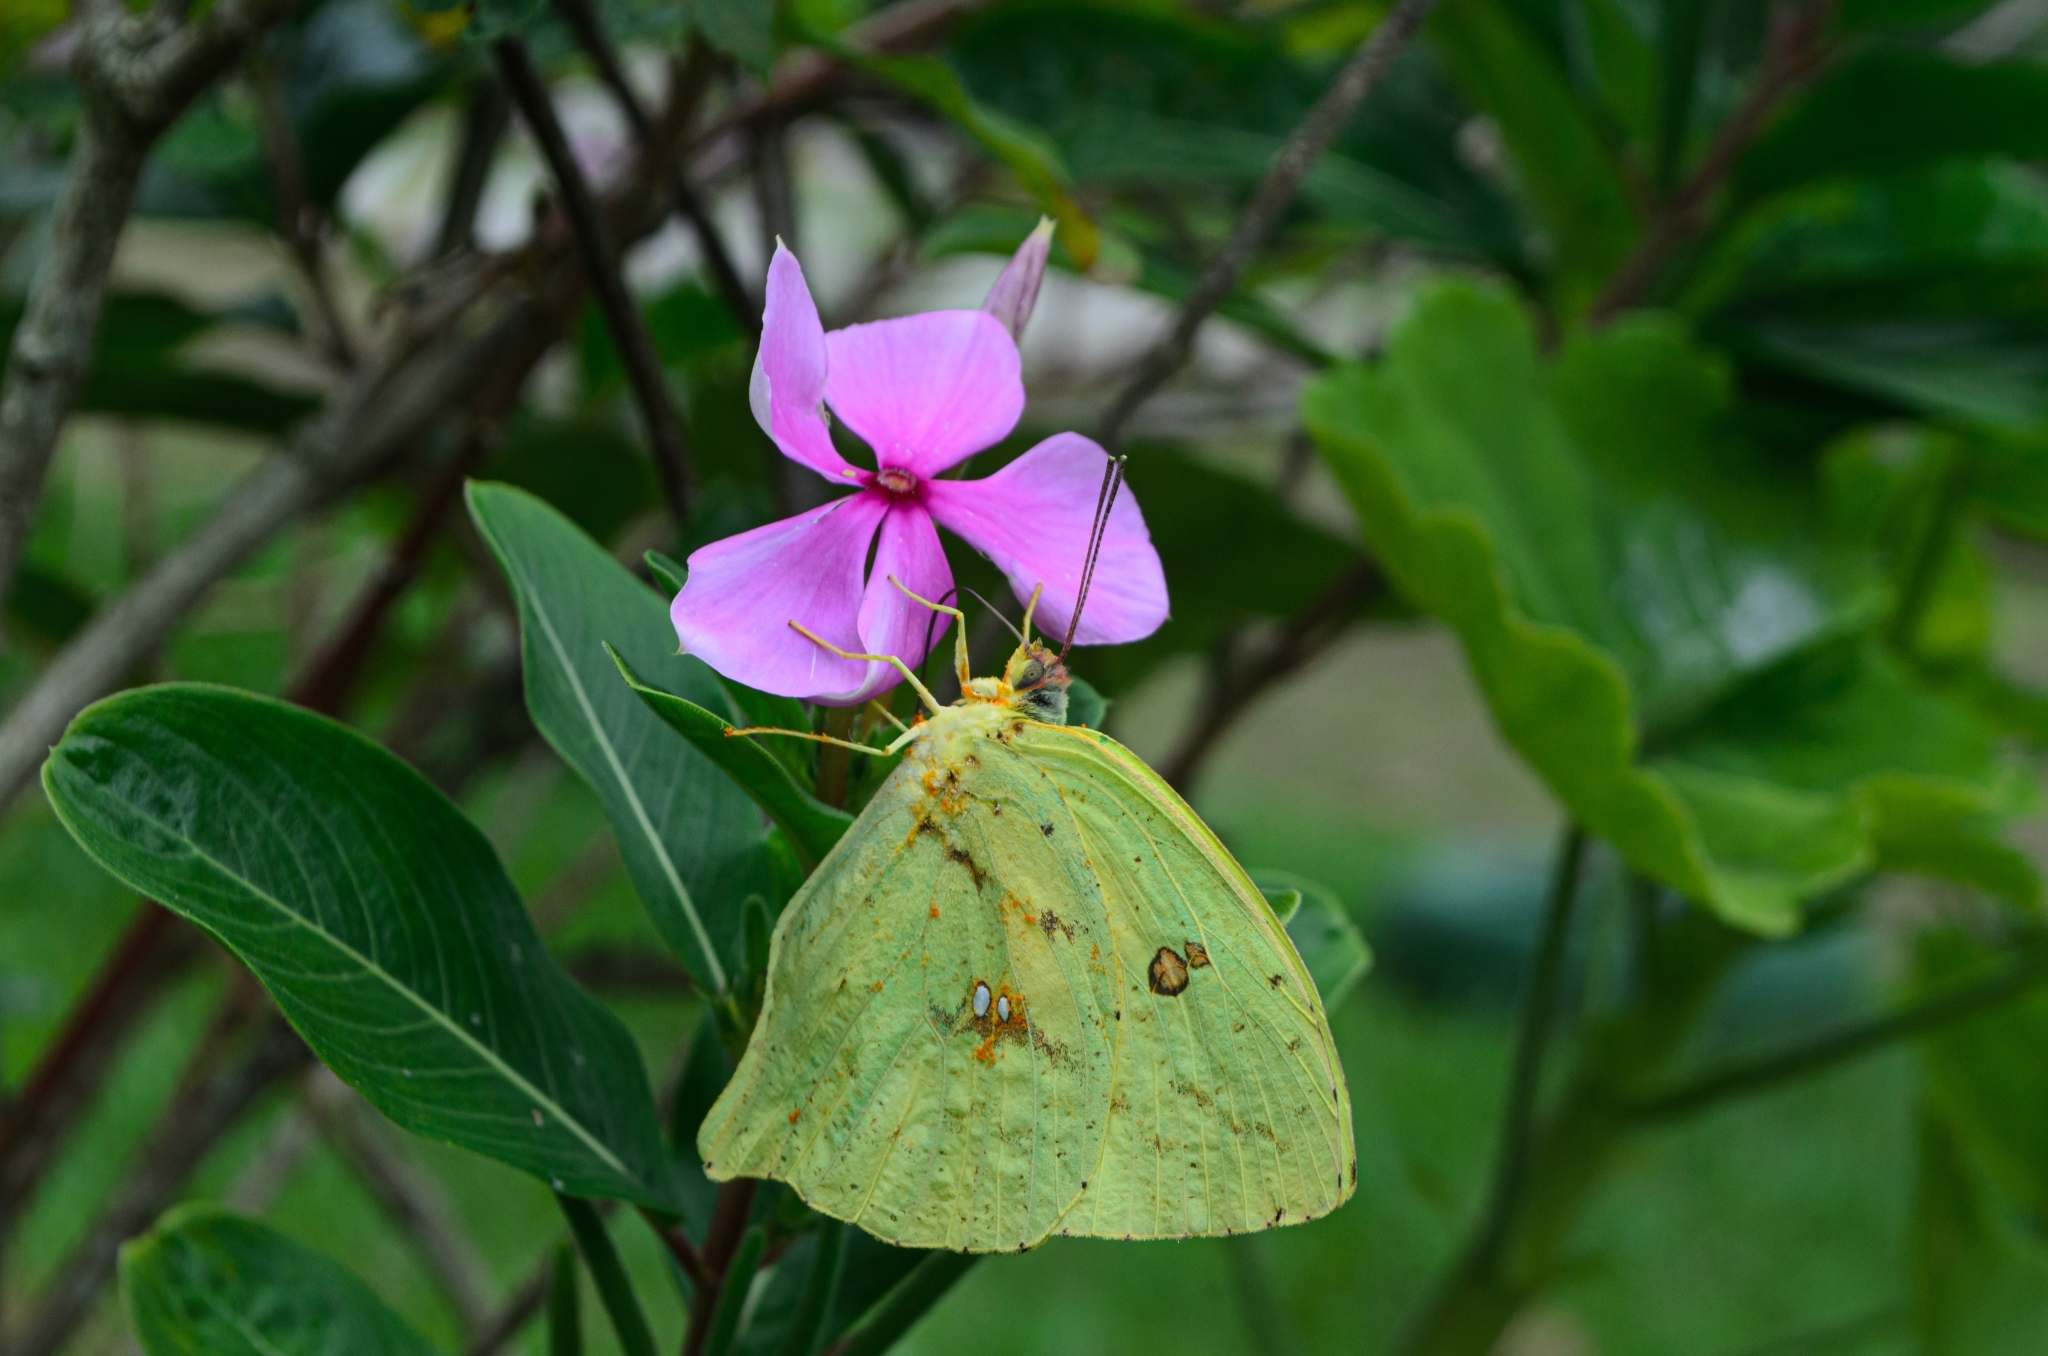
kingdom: Animalia
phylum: Arthropoda
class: Insecta
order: Lepidoptera
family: Pieridae
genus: Phoebis
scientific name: Phoebis neocypris
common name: Tailed sulphur
